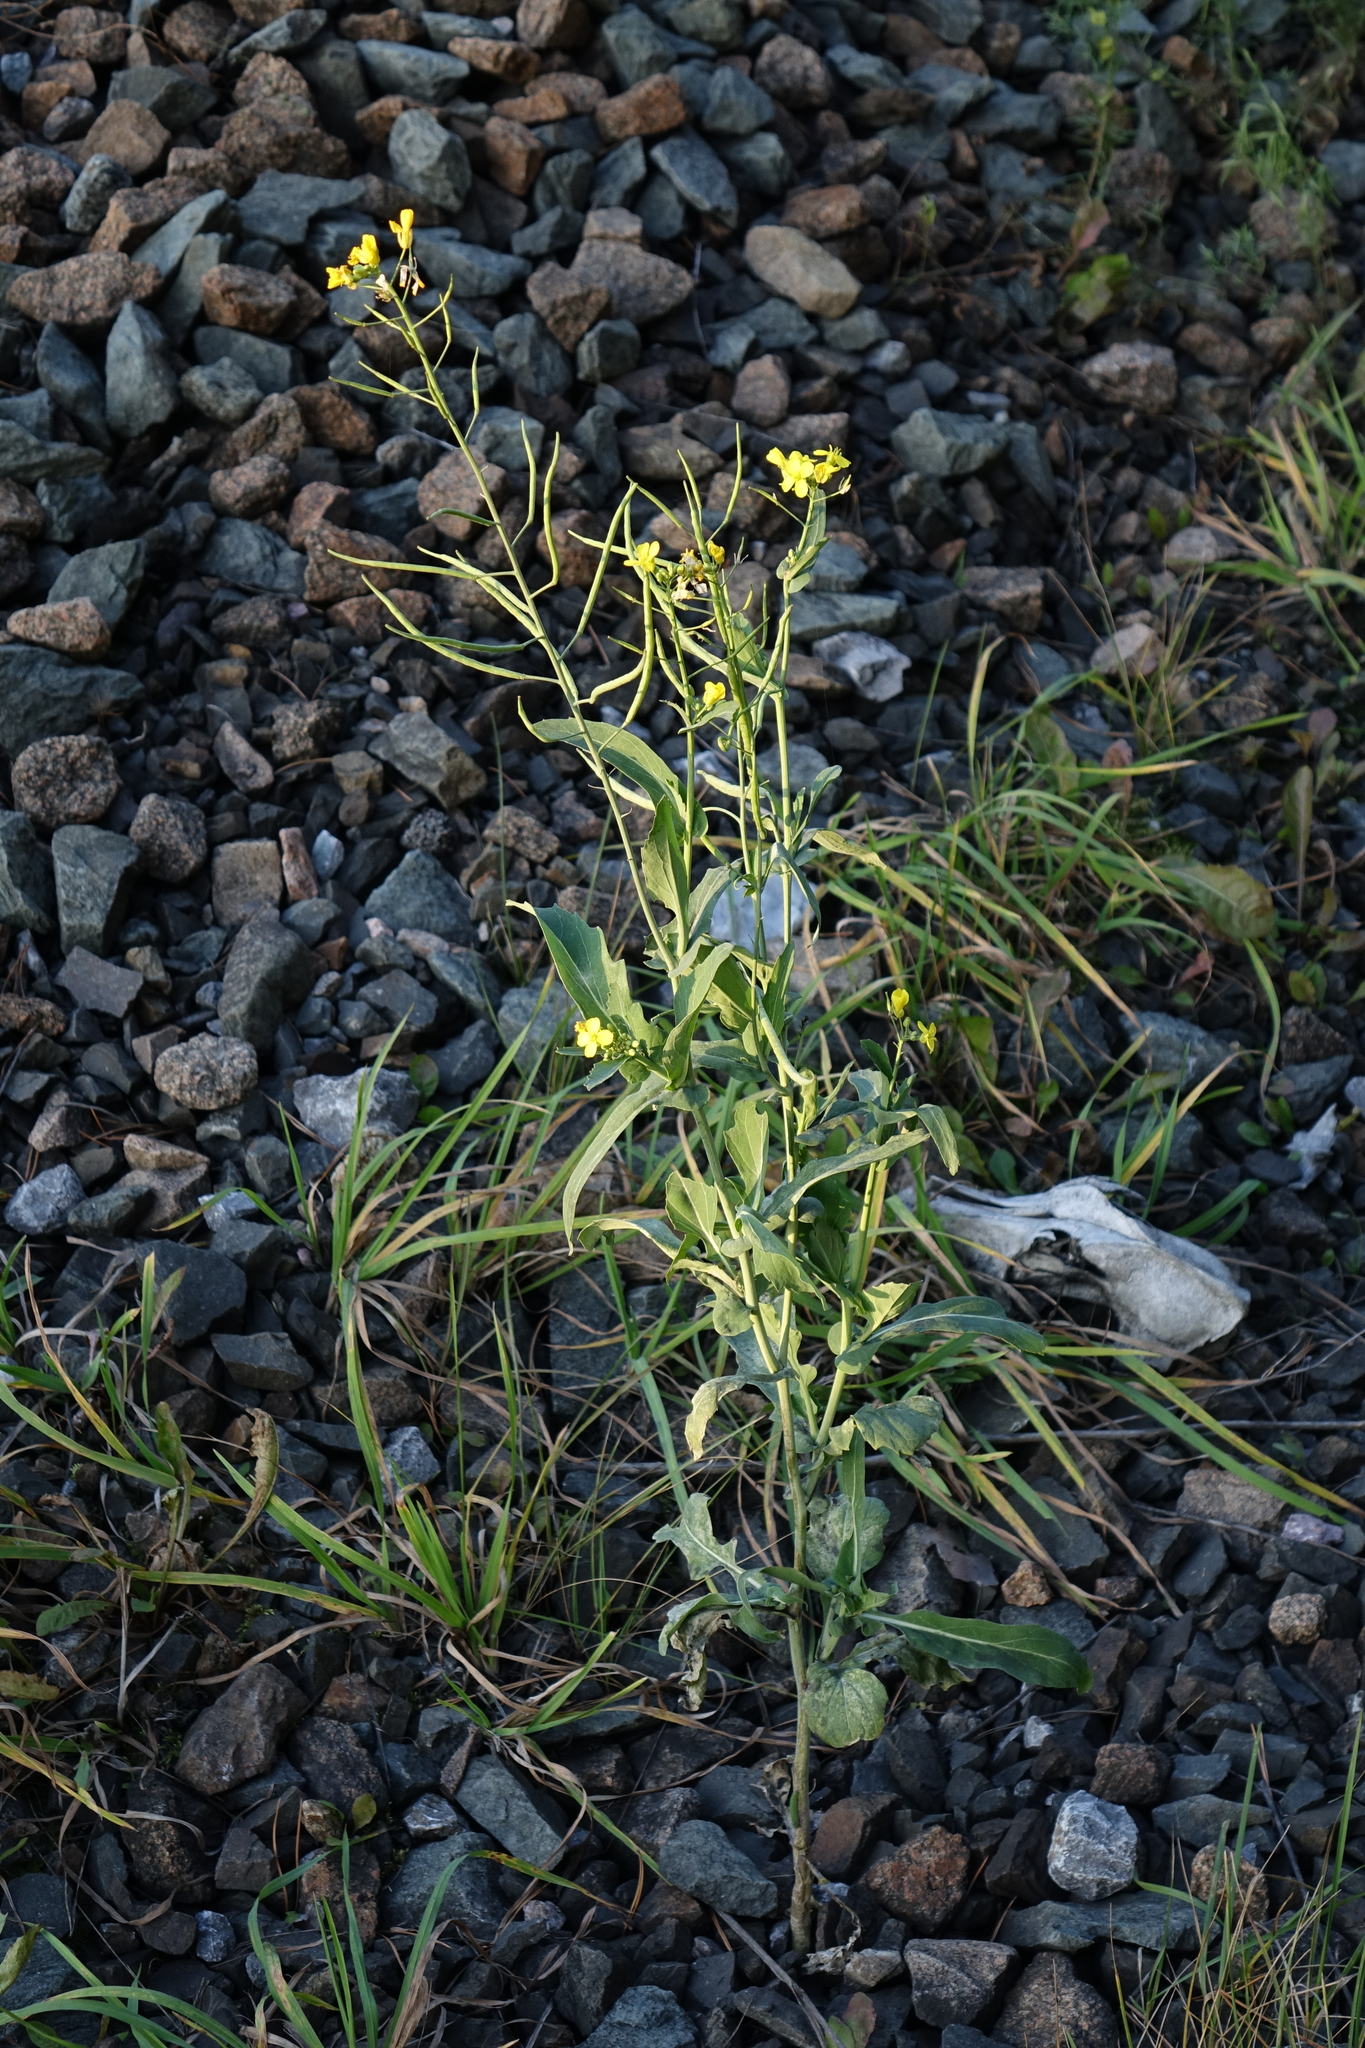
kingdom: Plantae
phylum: Tracheophyta
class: Magnoliopsida
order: Brassicales
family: Brassicaceae
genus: Brassica
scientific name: Brassica napus
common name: Rape
